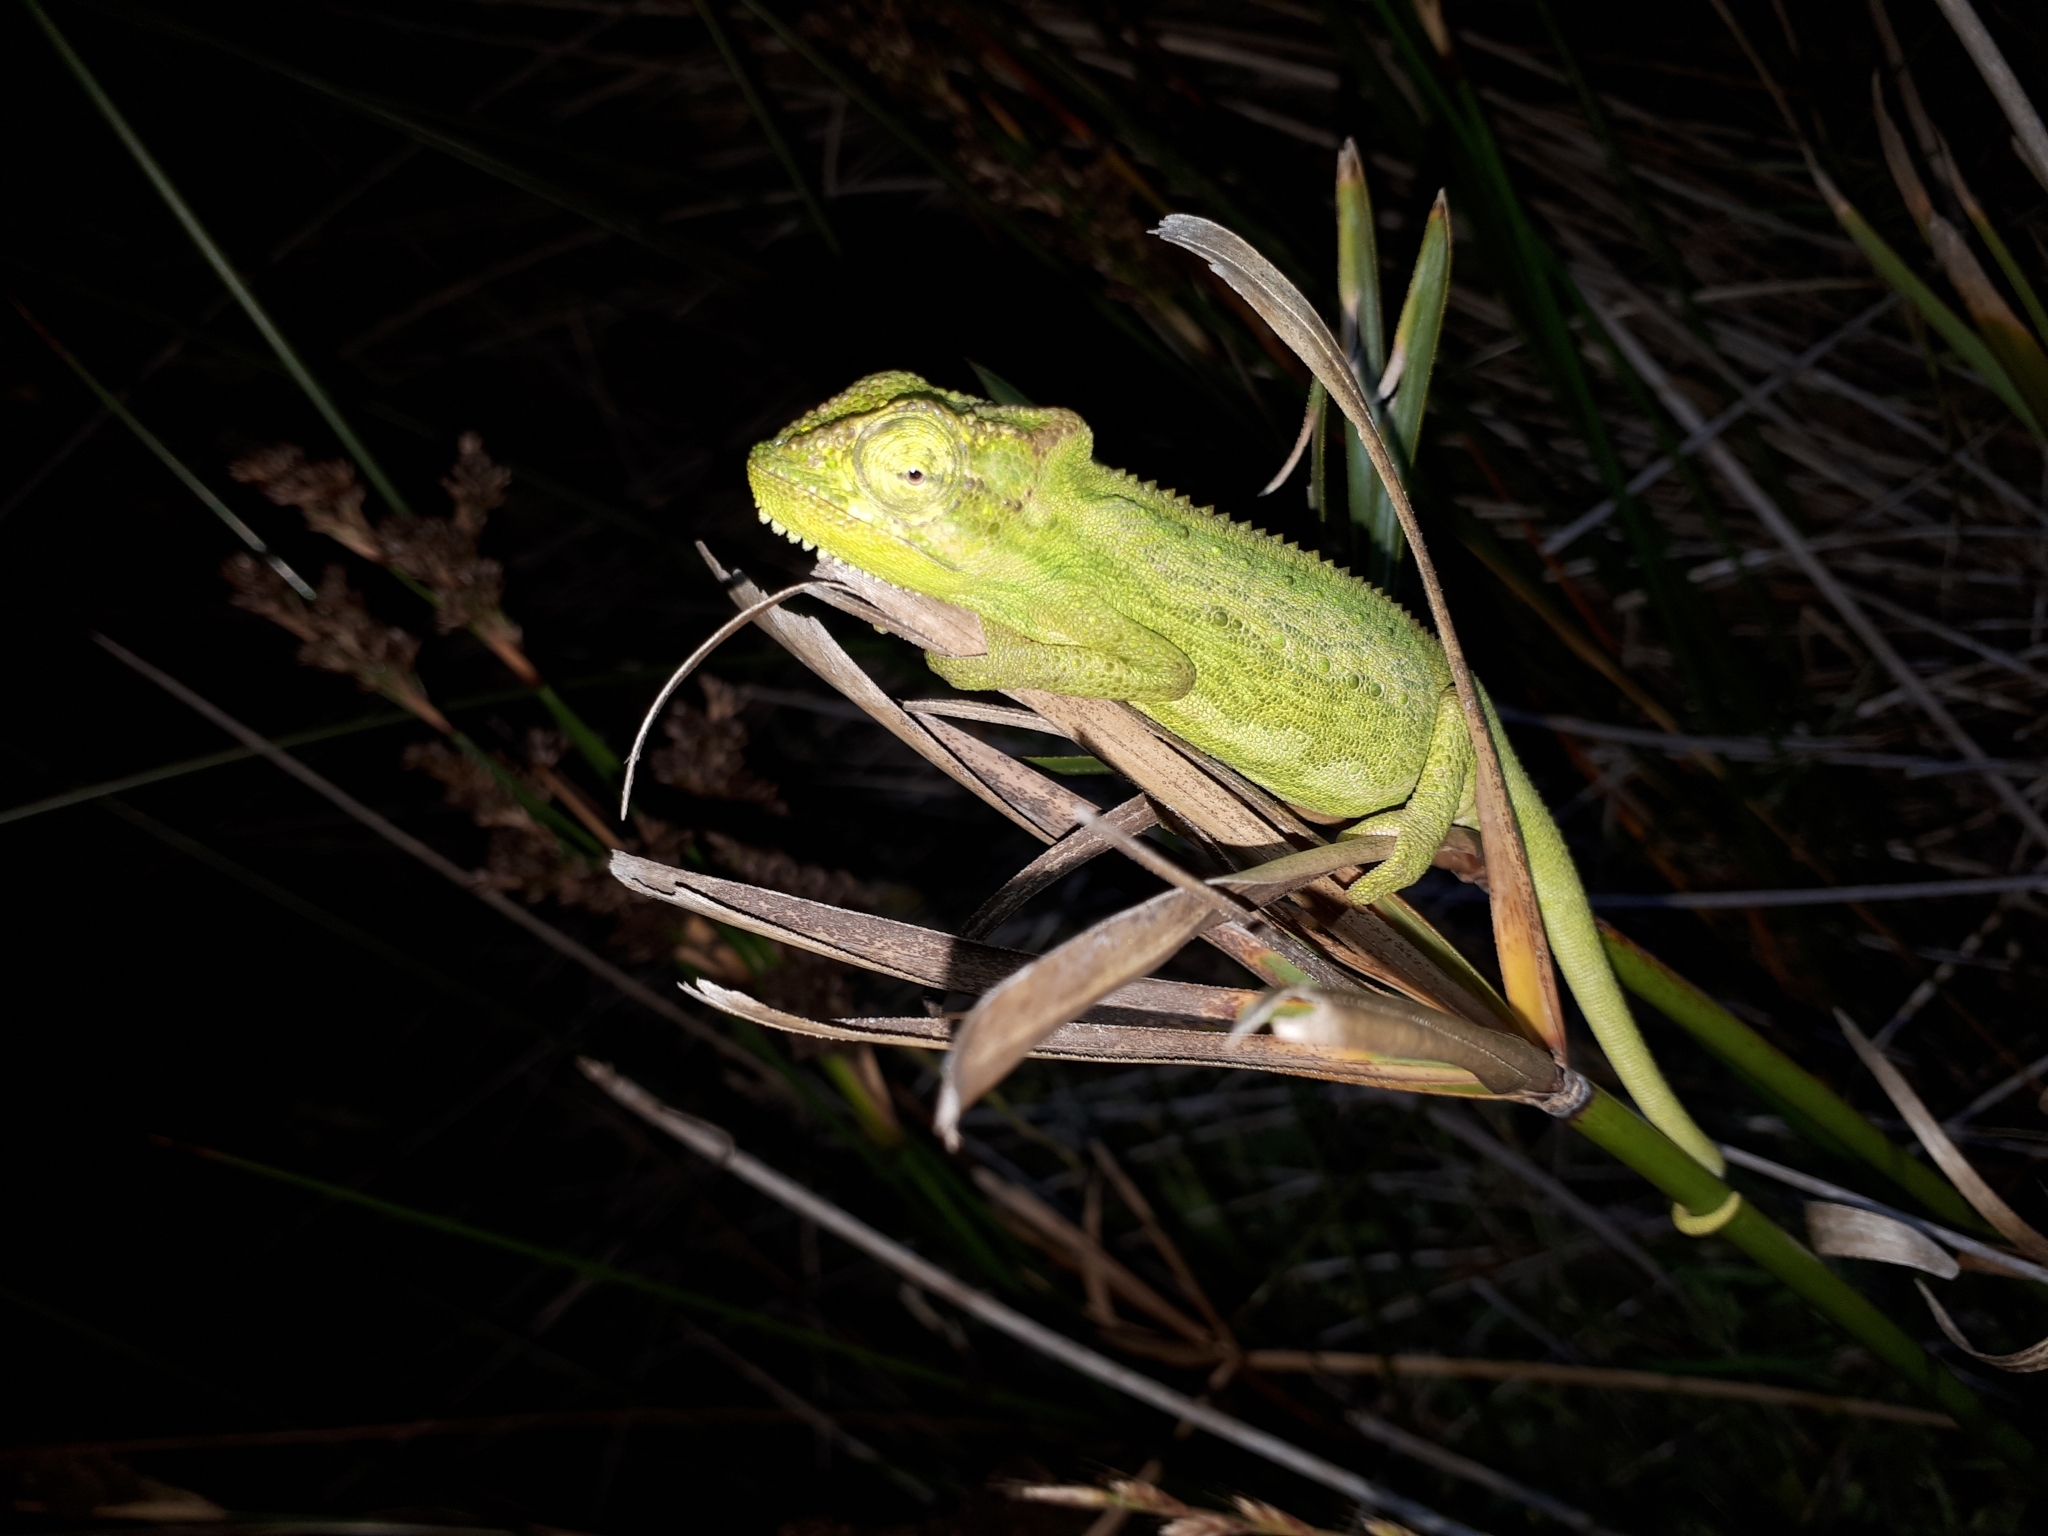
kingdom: Animalia
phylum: Chordata
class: Squamata
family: Chamaeleonidae
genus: Bradypodion
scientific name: Bradypodion pumilum
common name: Cape dwarf chameleon
